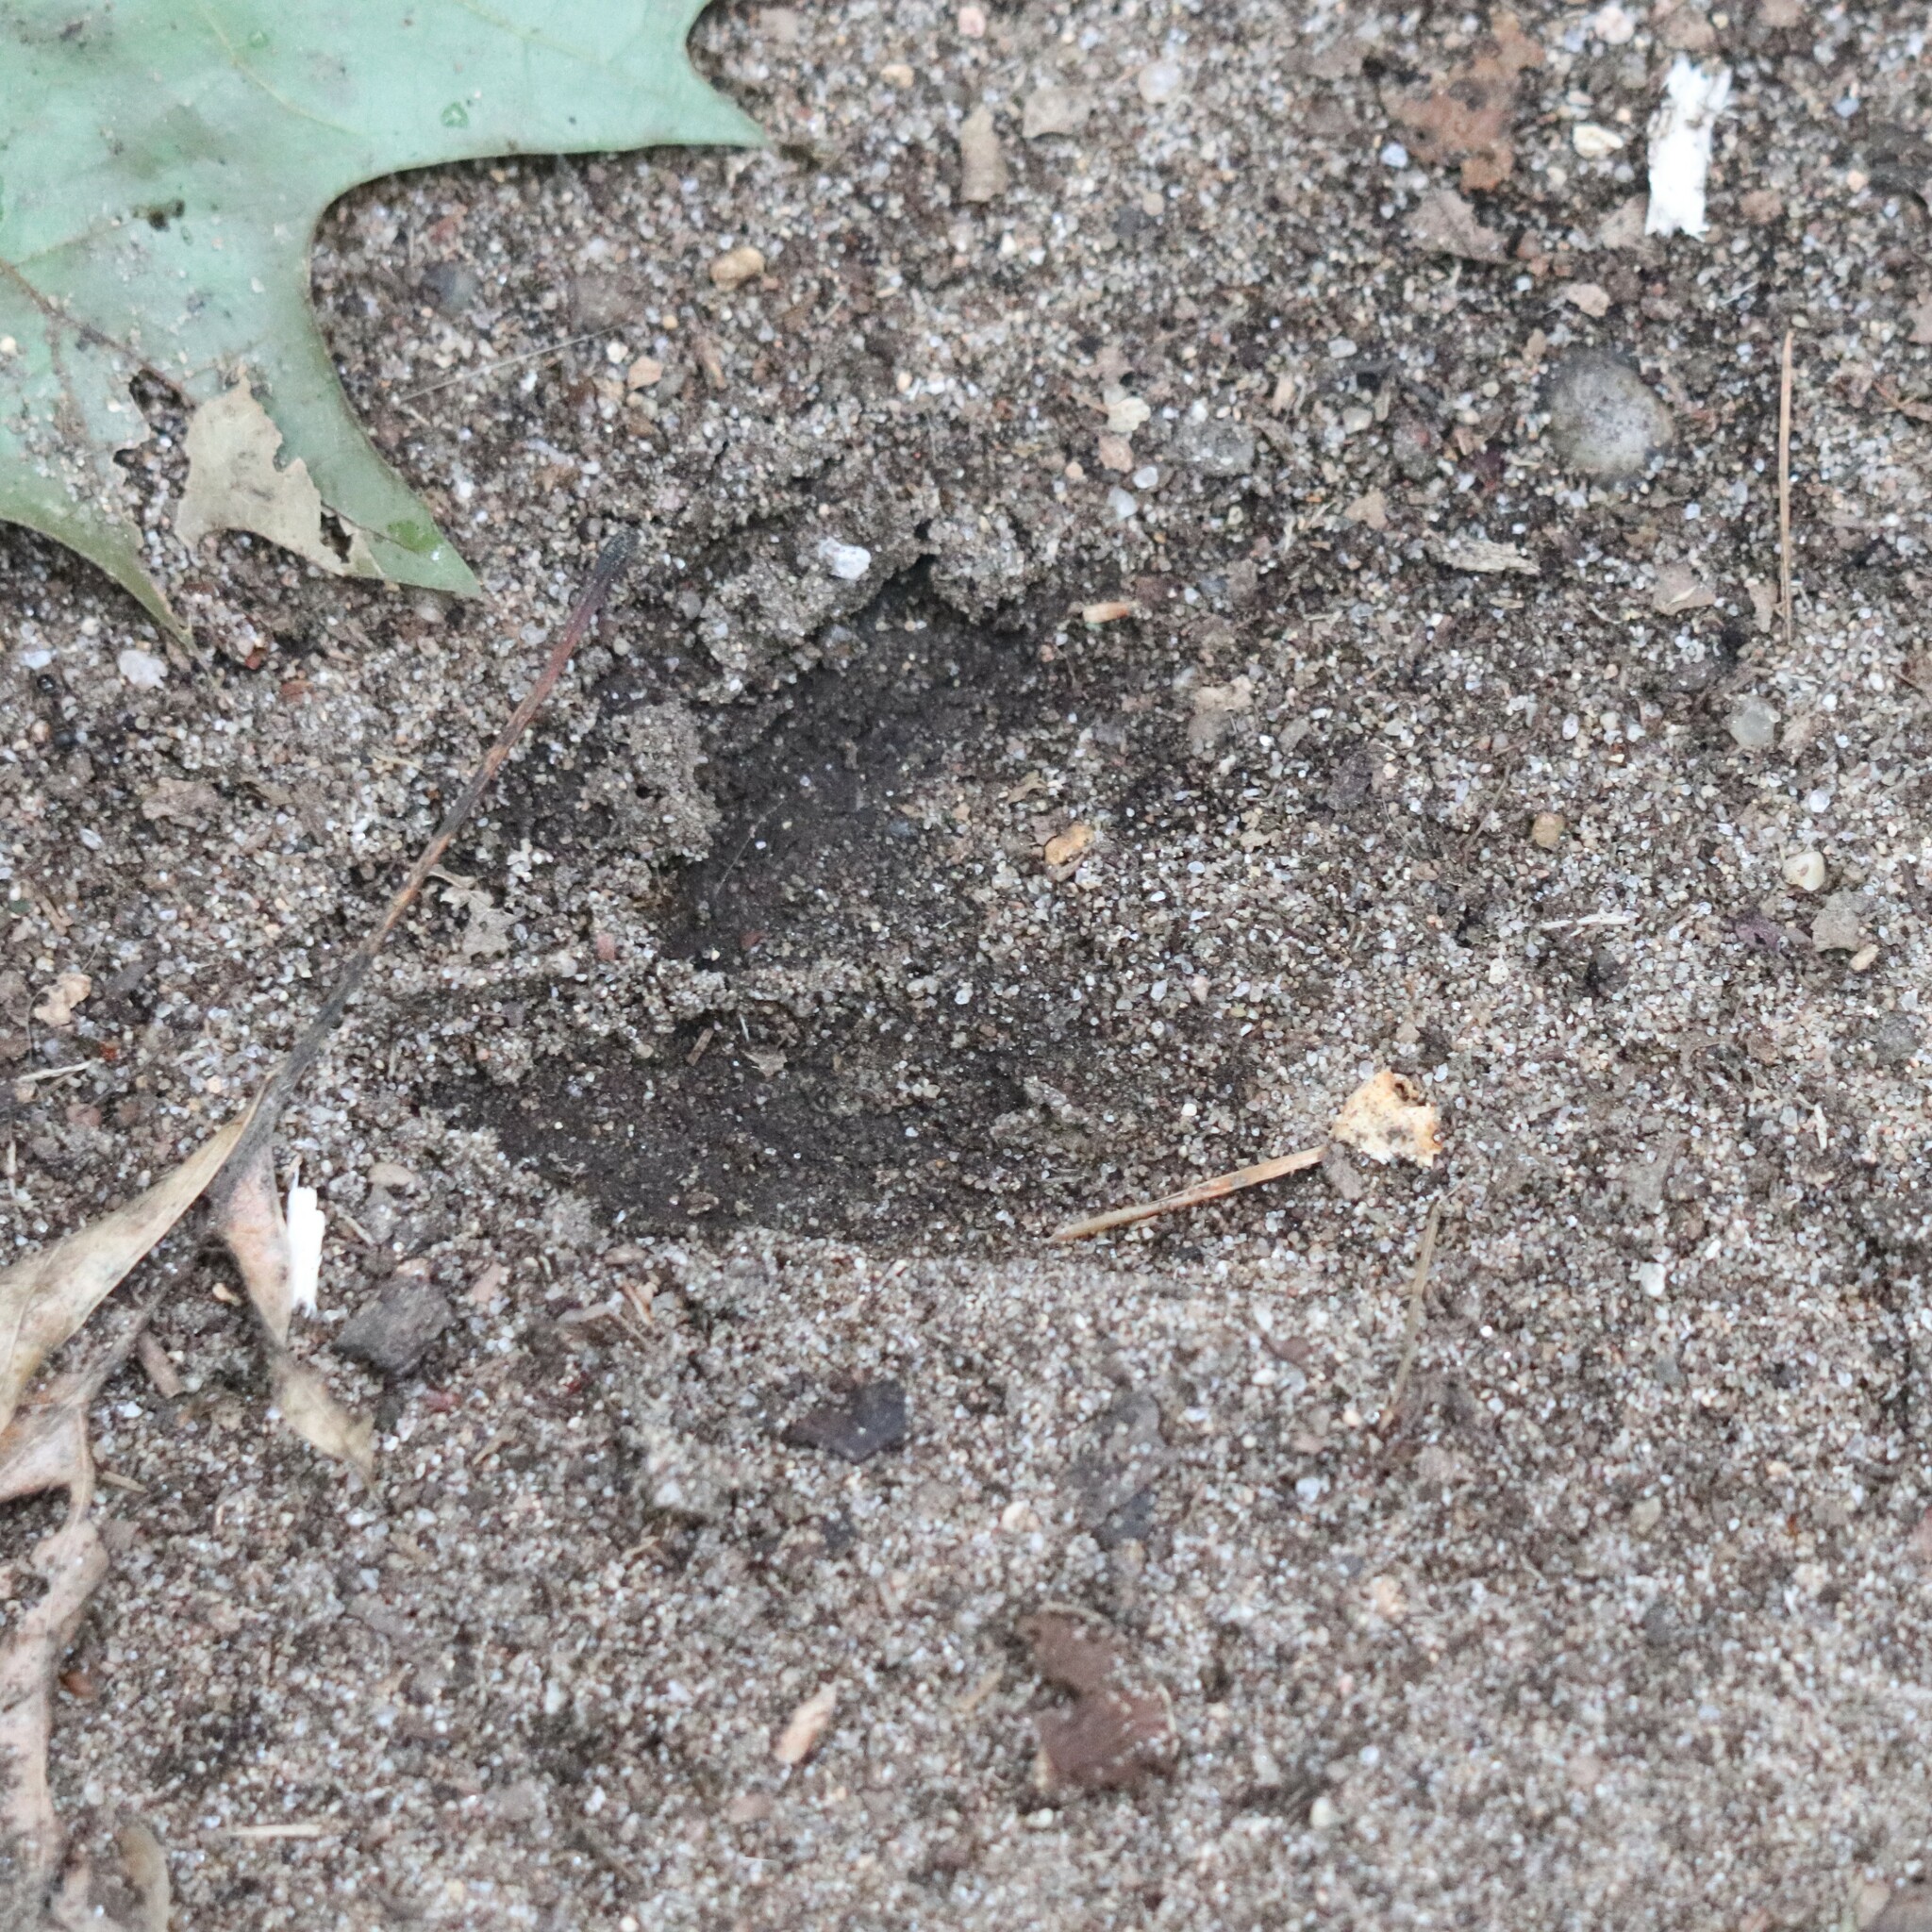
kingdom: Animalia
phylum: Chordata
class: Mammalia
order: Artiodactyla
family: Cervidae
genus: Odocoileus
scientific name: Odocoileus virginianus
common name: White-tailed deer
